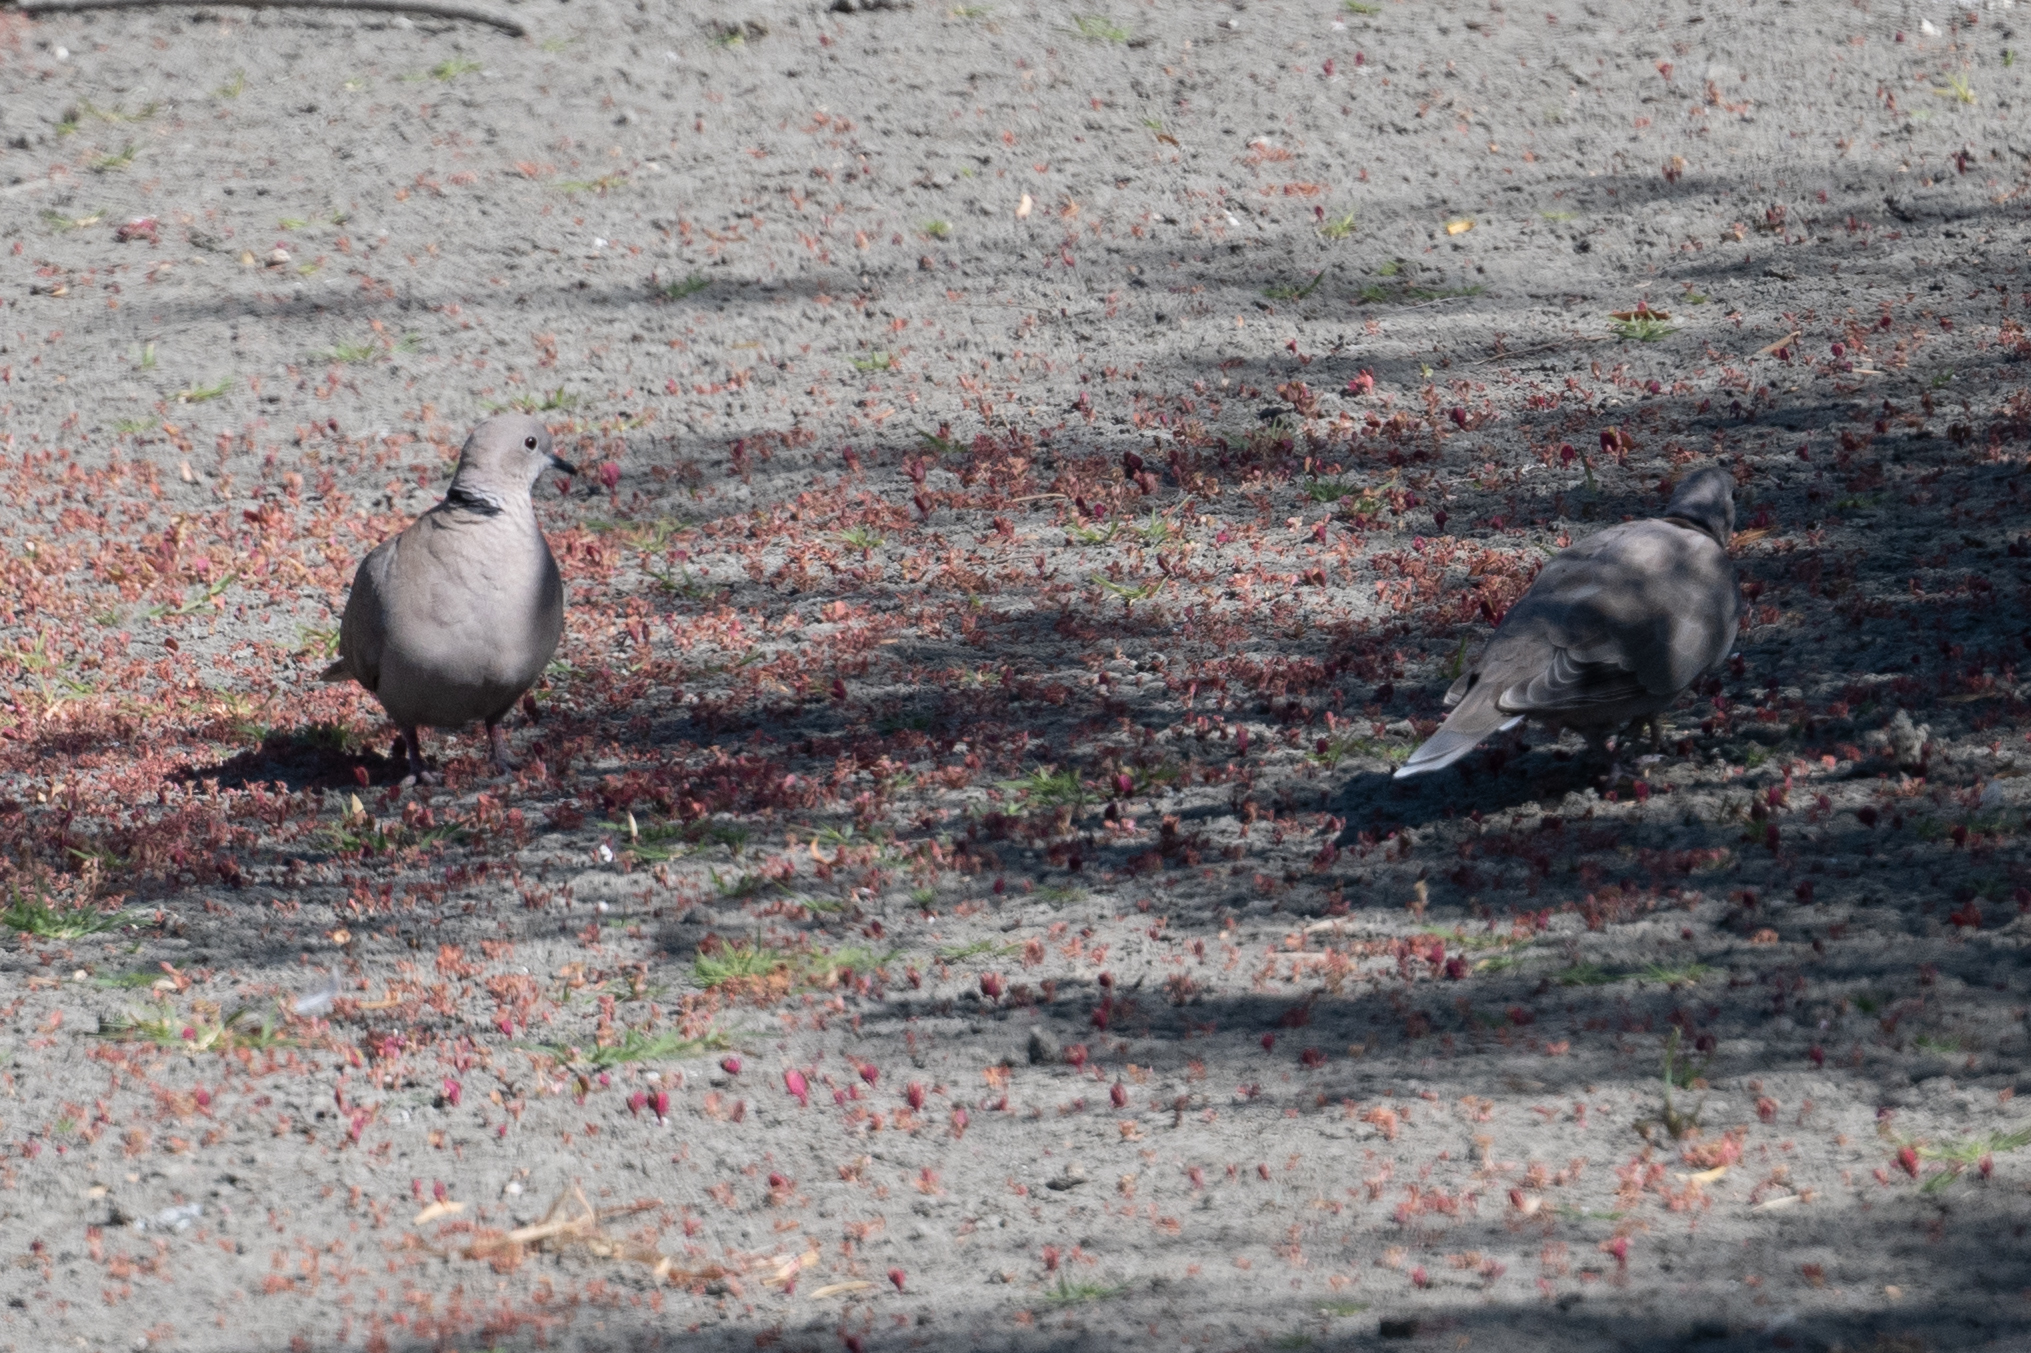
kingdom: Animalia
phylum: Chordata
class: Aves
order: Columbiformes
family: Columbidae
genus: Streptopelia
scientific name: Streptopelia decaocto
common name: Eurasian collared dove
